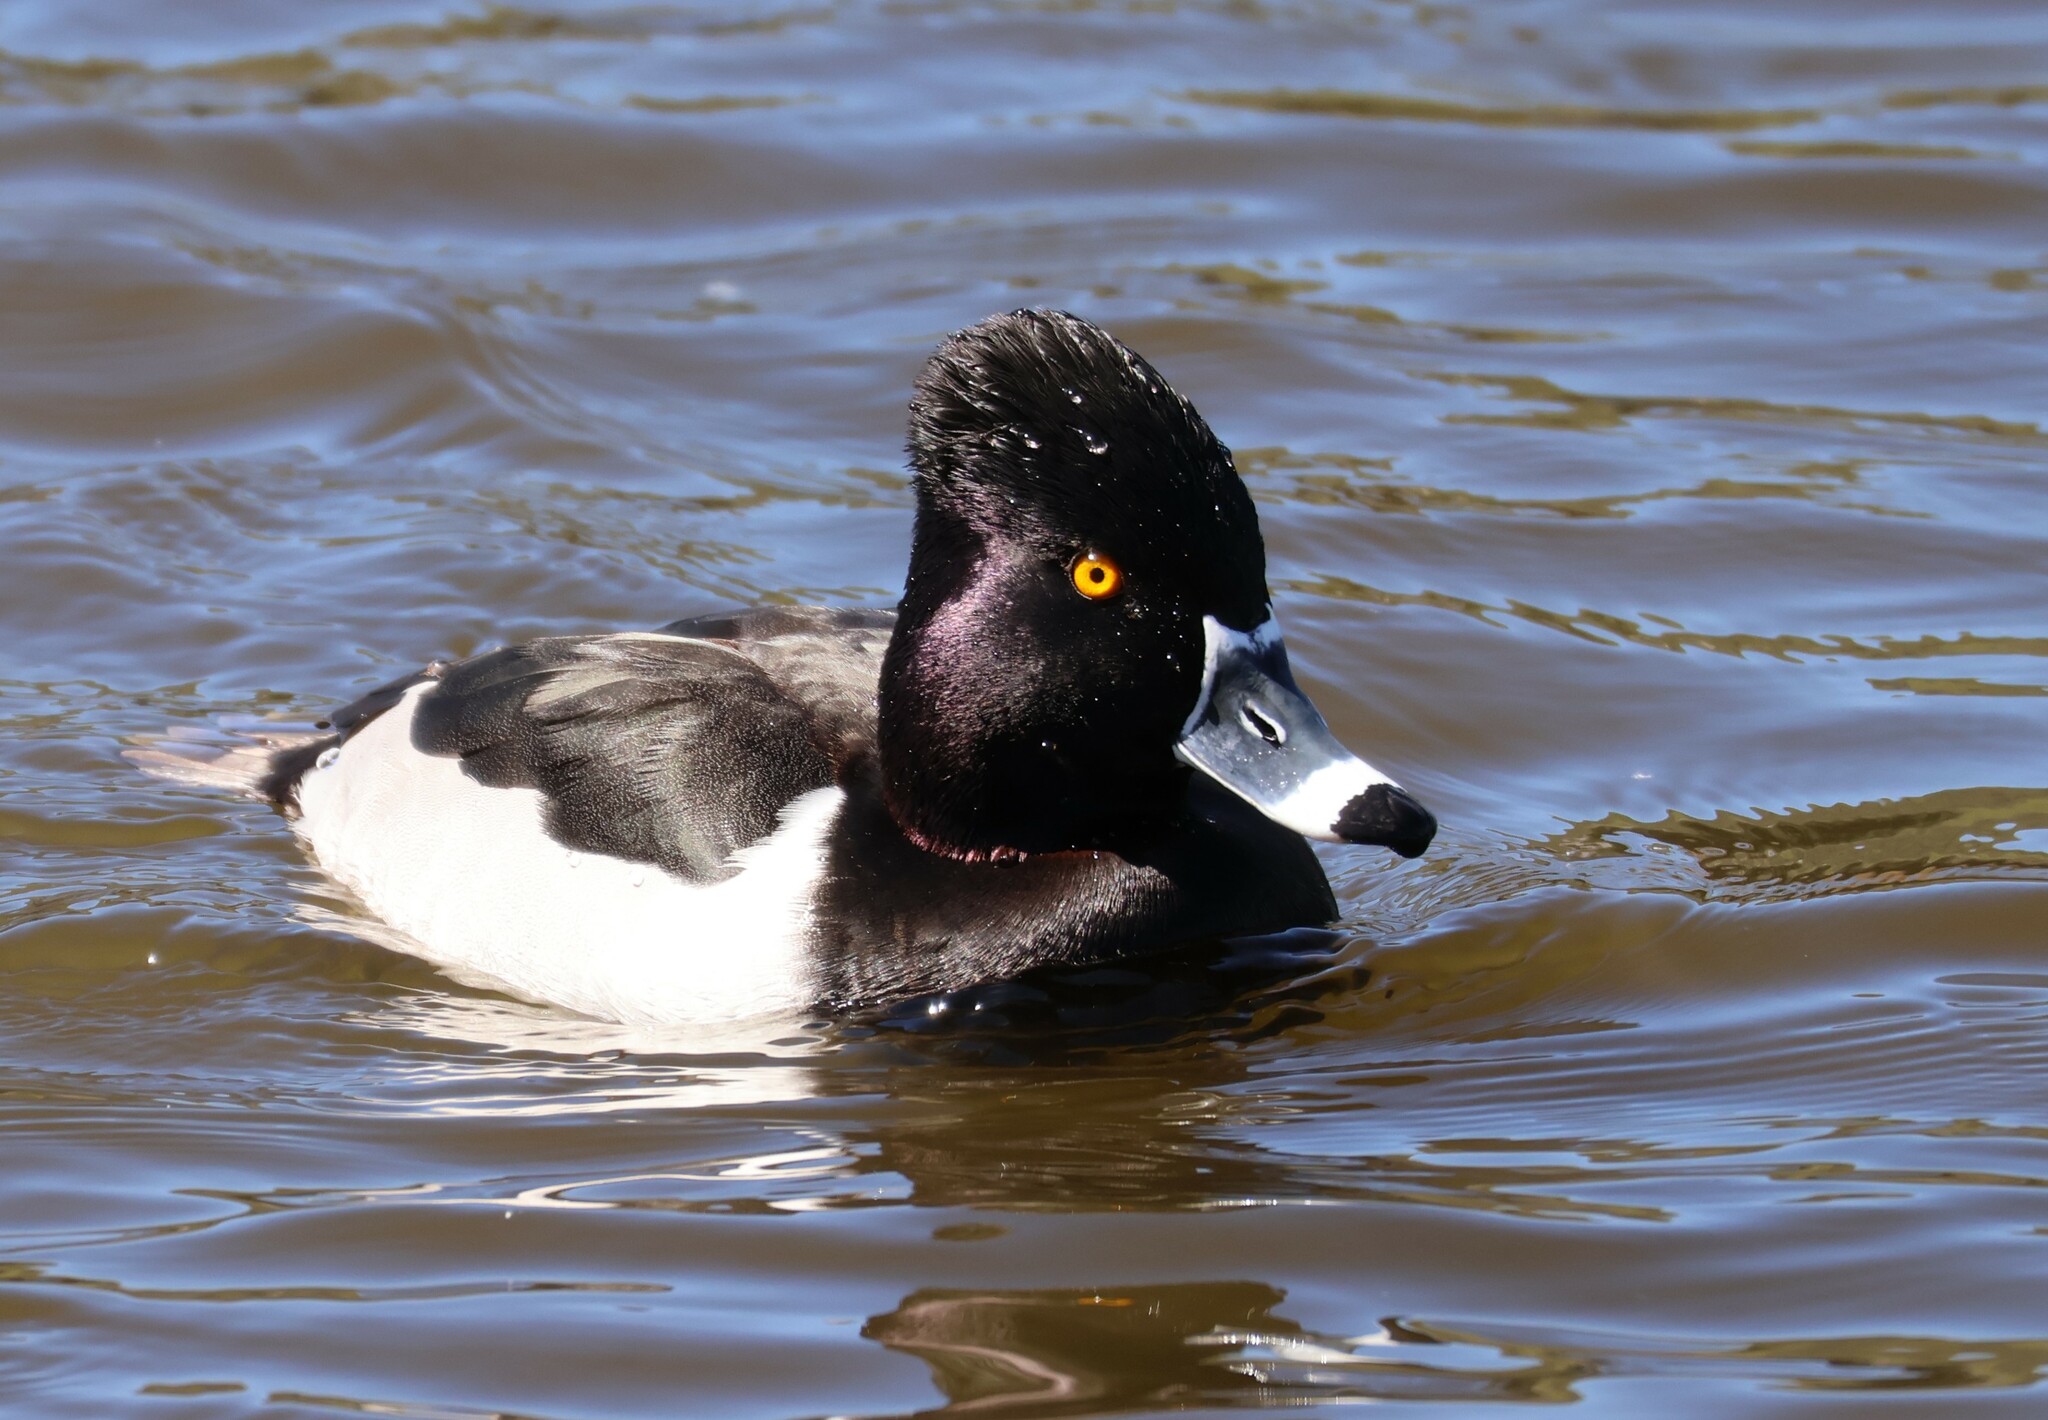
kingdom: Animalia
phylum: Chordata
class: Aves
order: Anseriformes
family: Anatidae
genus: Aythya
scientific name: Aythya collaris
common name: Ring-necked duck
